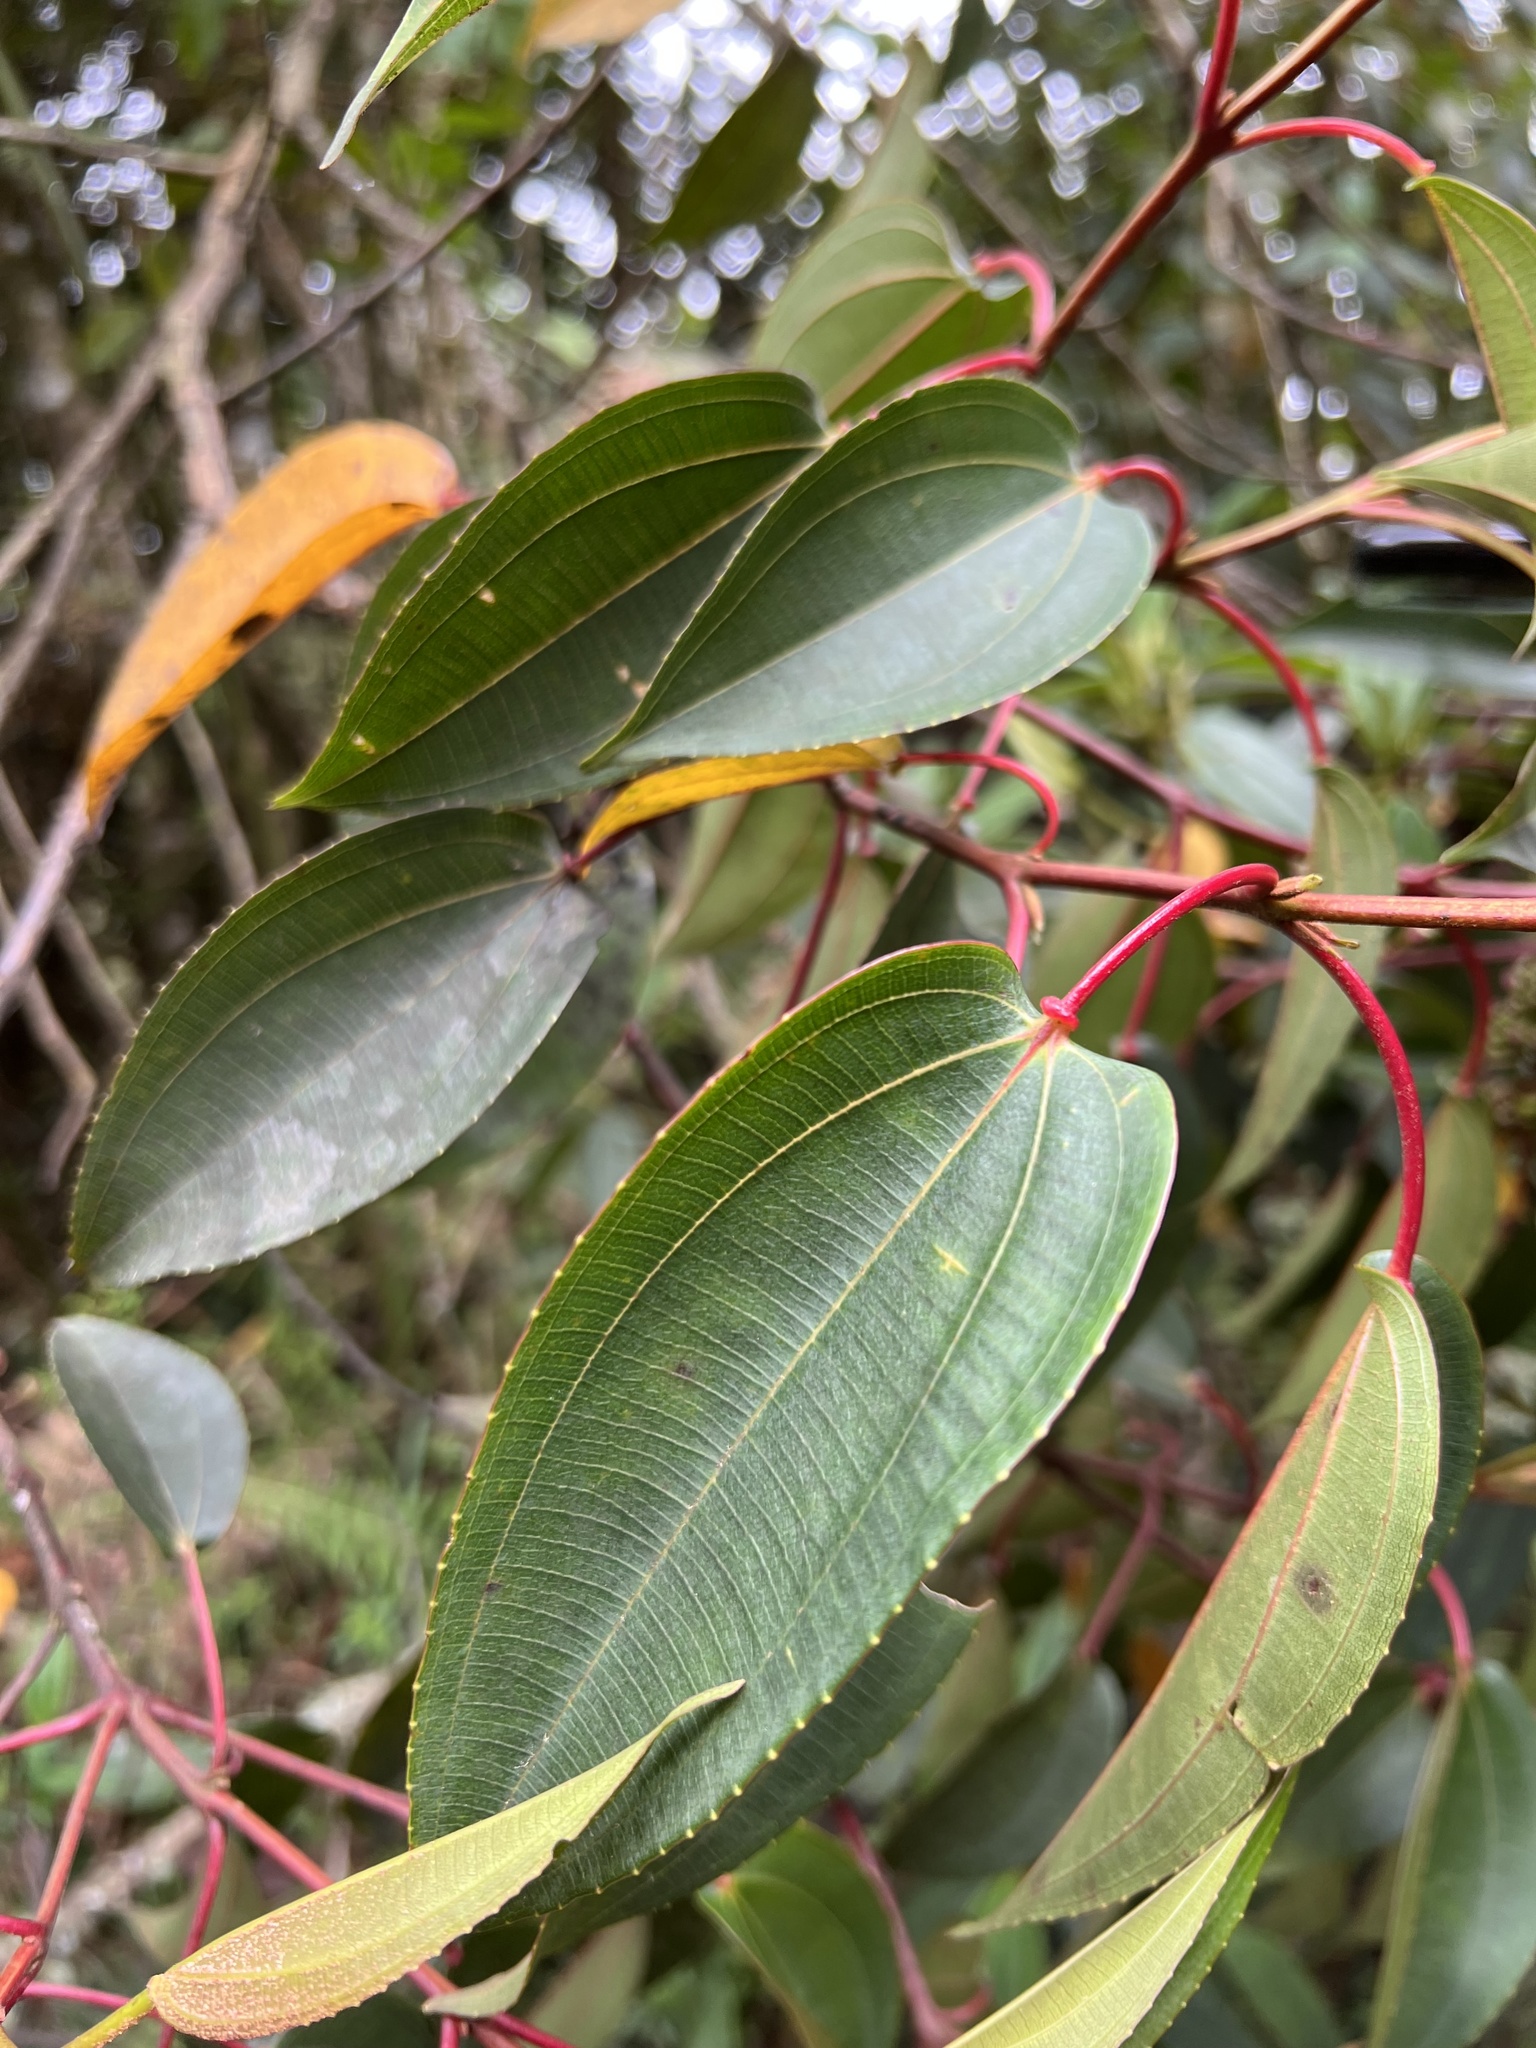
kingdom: Plantae
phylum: Tracheophyta
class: Magnoliopsida
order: Myrtales
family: Melastomataceae
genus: Axinaea
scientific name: Axinaea scutigera
